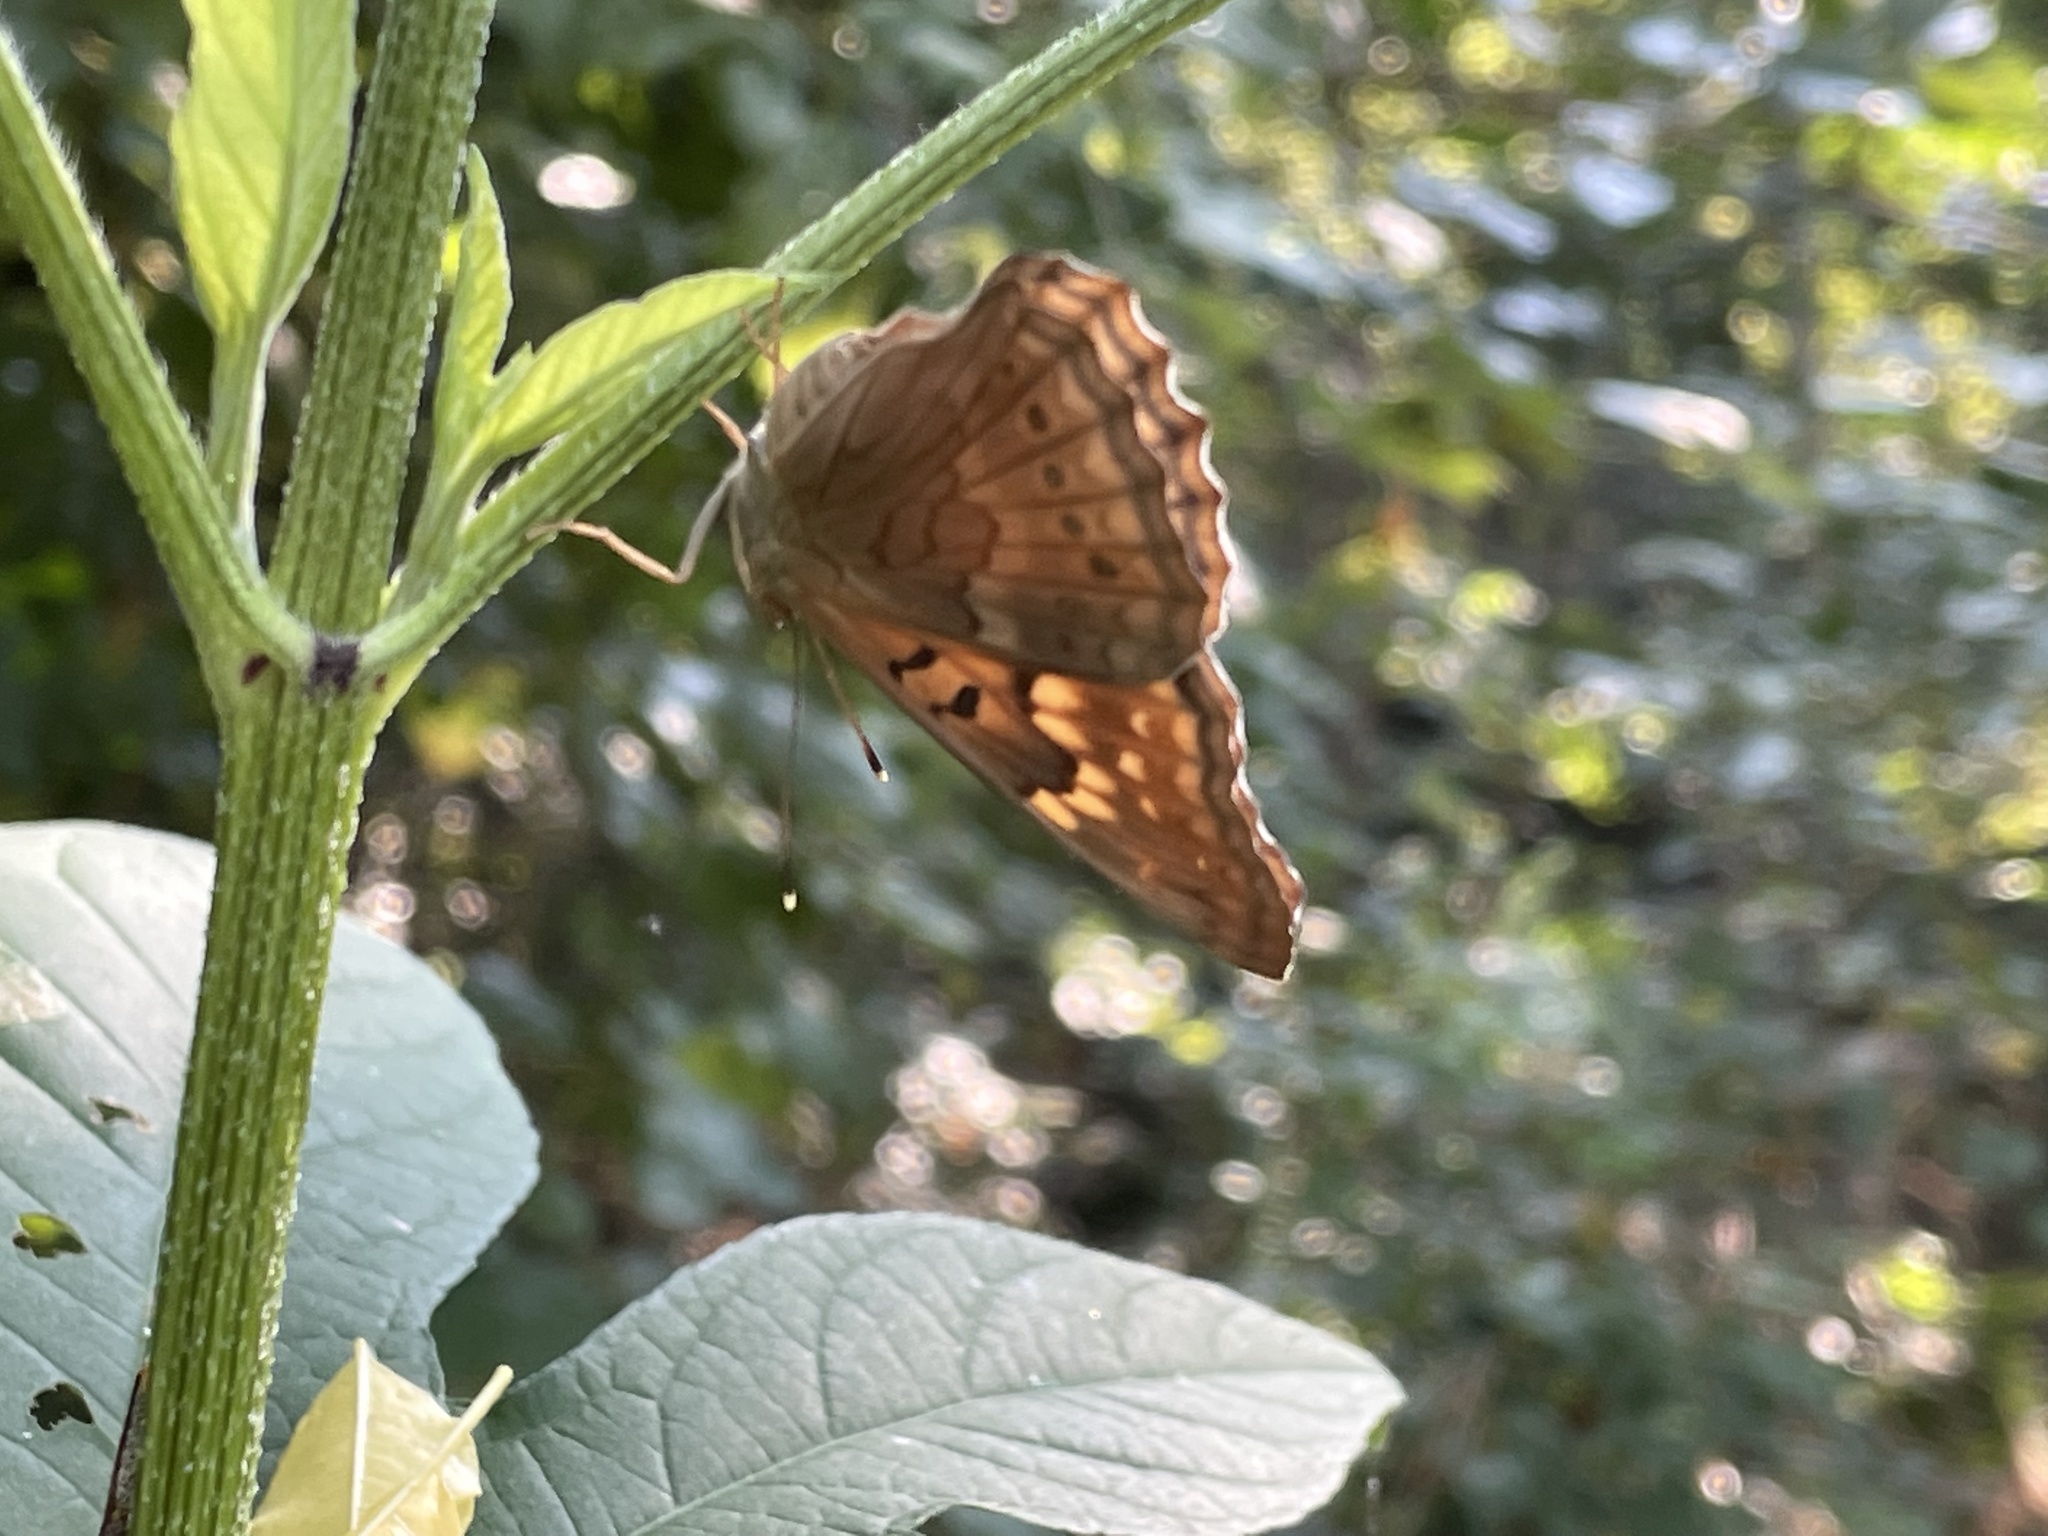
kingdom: Animalia
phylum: Arthropoda
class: Insecta
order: Lepidoptera
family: Nymphalidae
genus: Asterocampa
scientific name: Asterocampa clyton
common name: Tawny emperor
